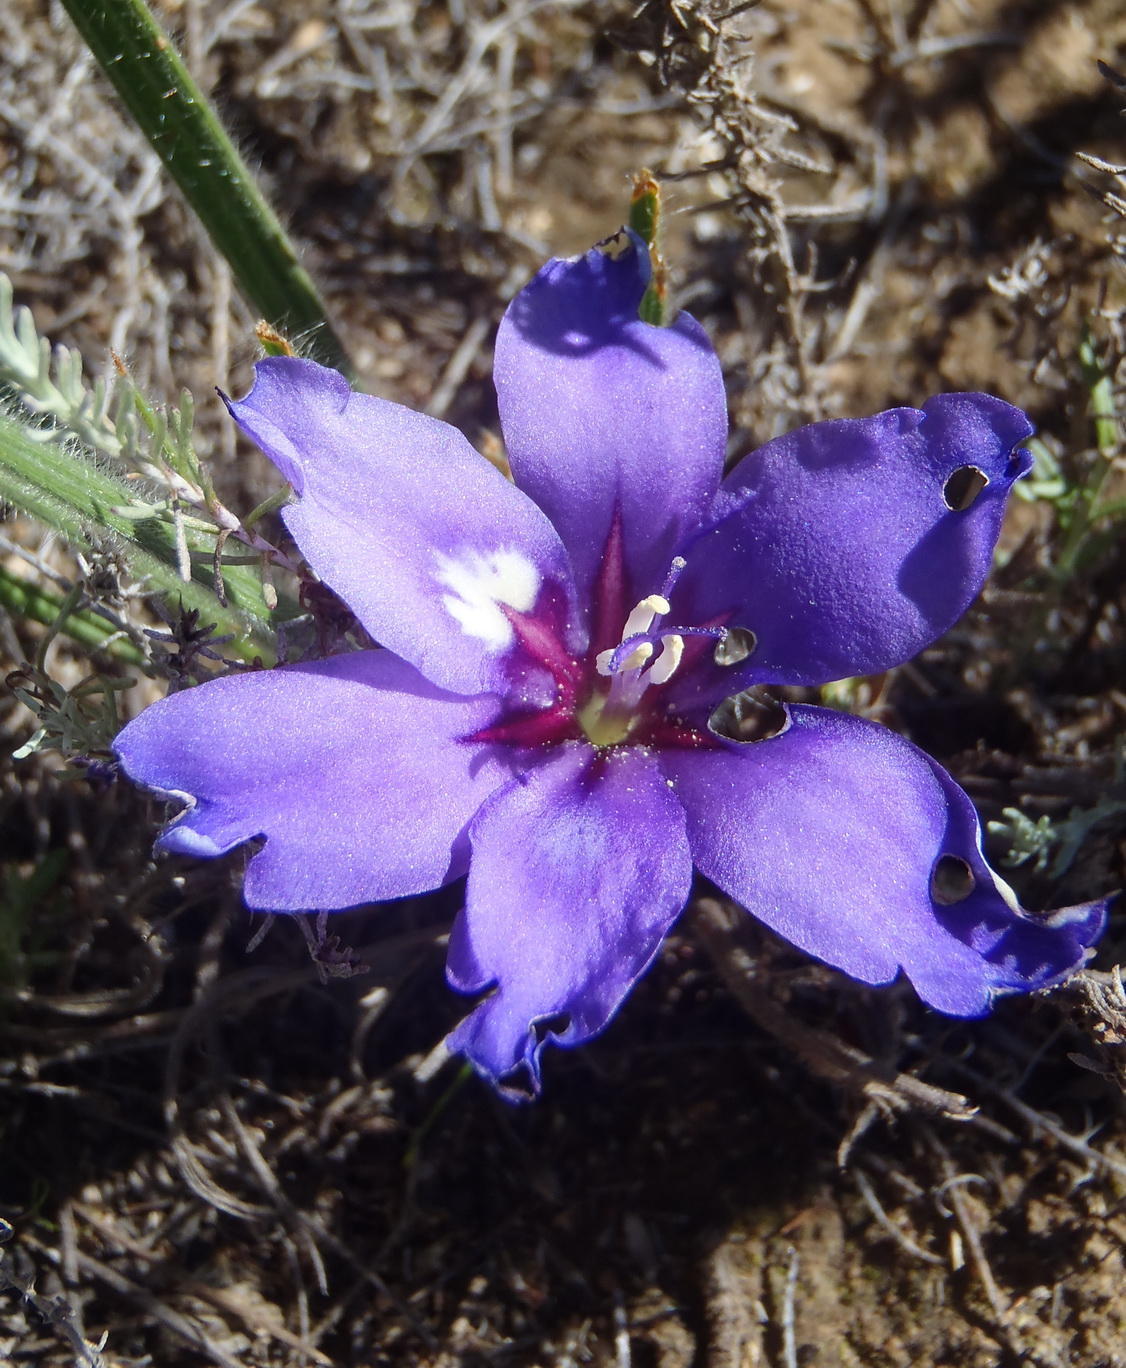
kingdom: Plantae
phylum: Tracheophyta
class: Liliopsida
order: Asparagales
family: Iridaceae
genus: Babiana
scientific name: Babiana sambucina
